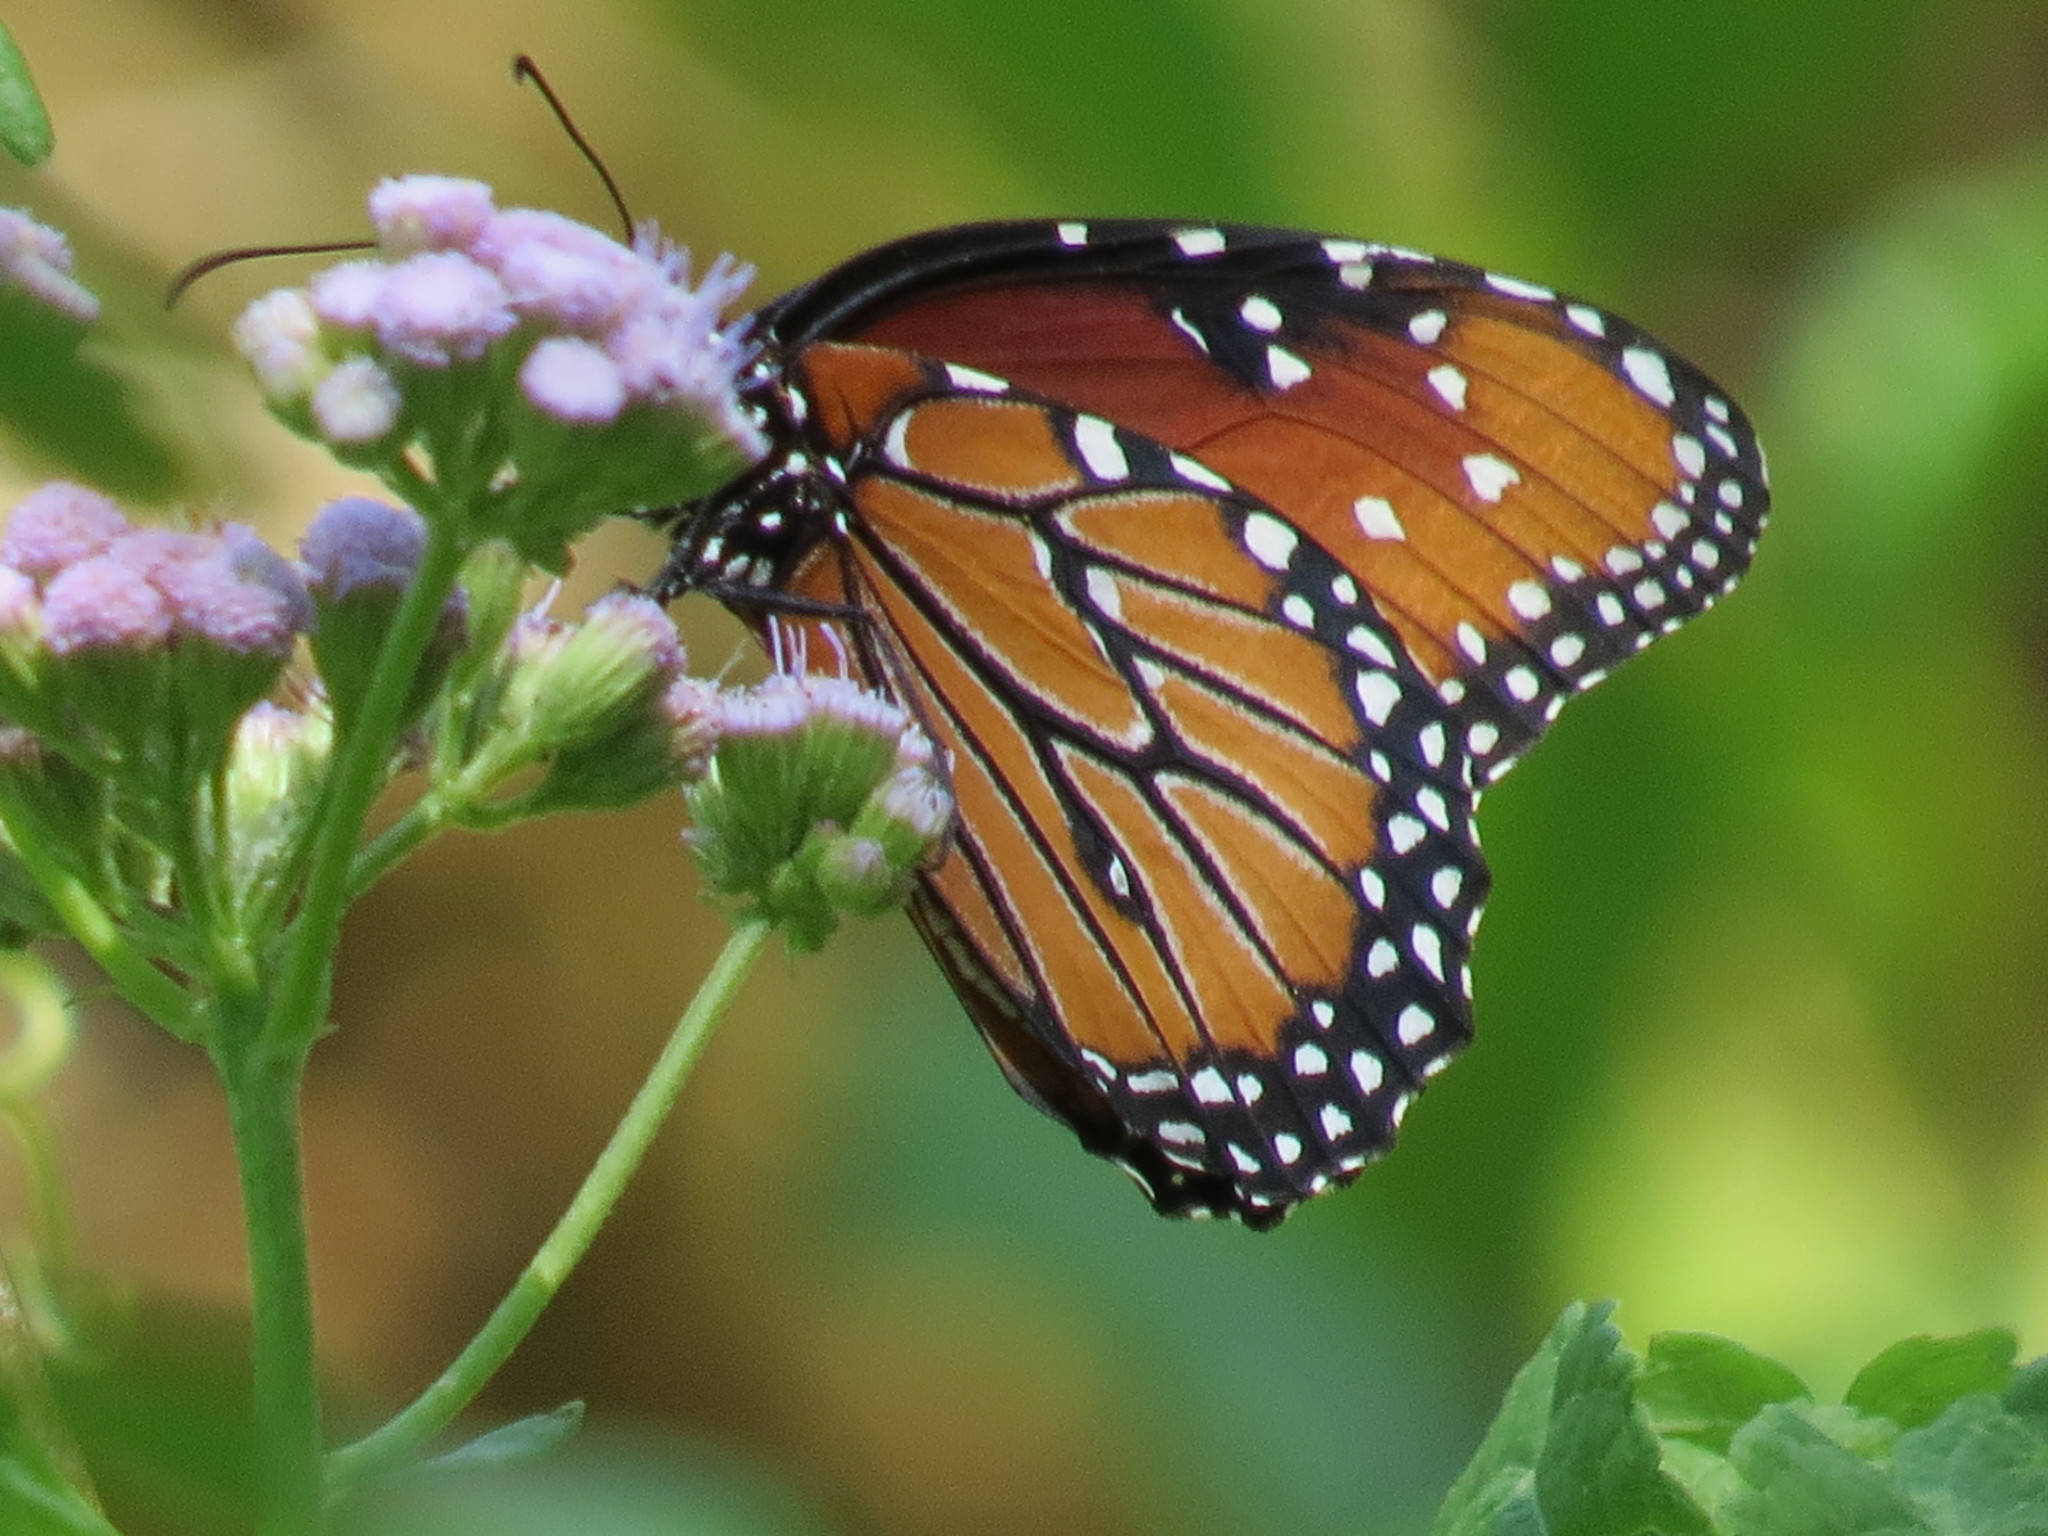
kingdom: Animalia
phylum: Arthropoda
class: Insecta
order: Lepidoptera
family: Nymphalidae
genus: Danaus
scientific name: Danaus gilippus
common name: Queen
